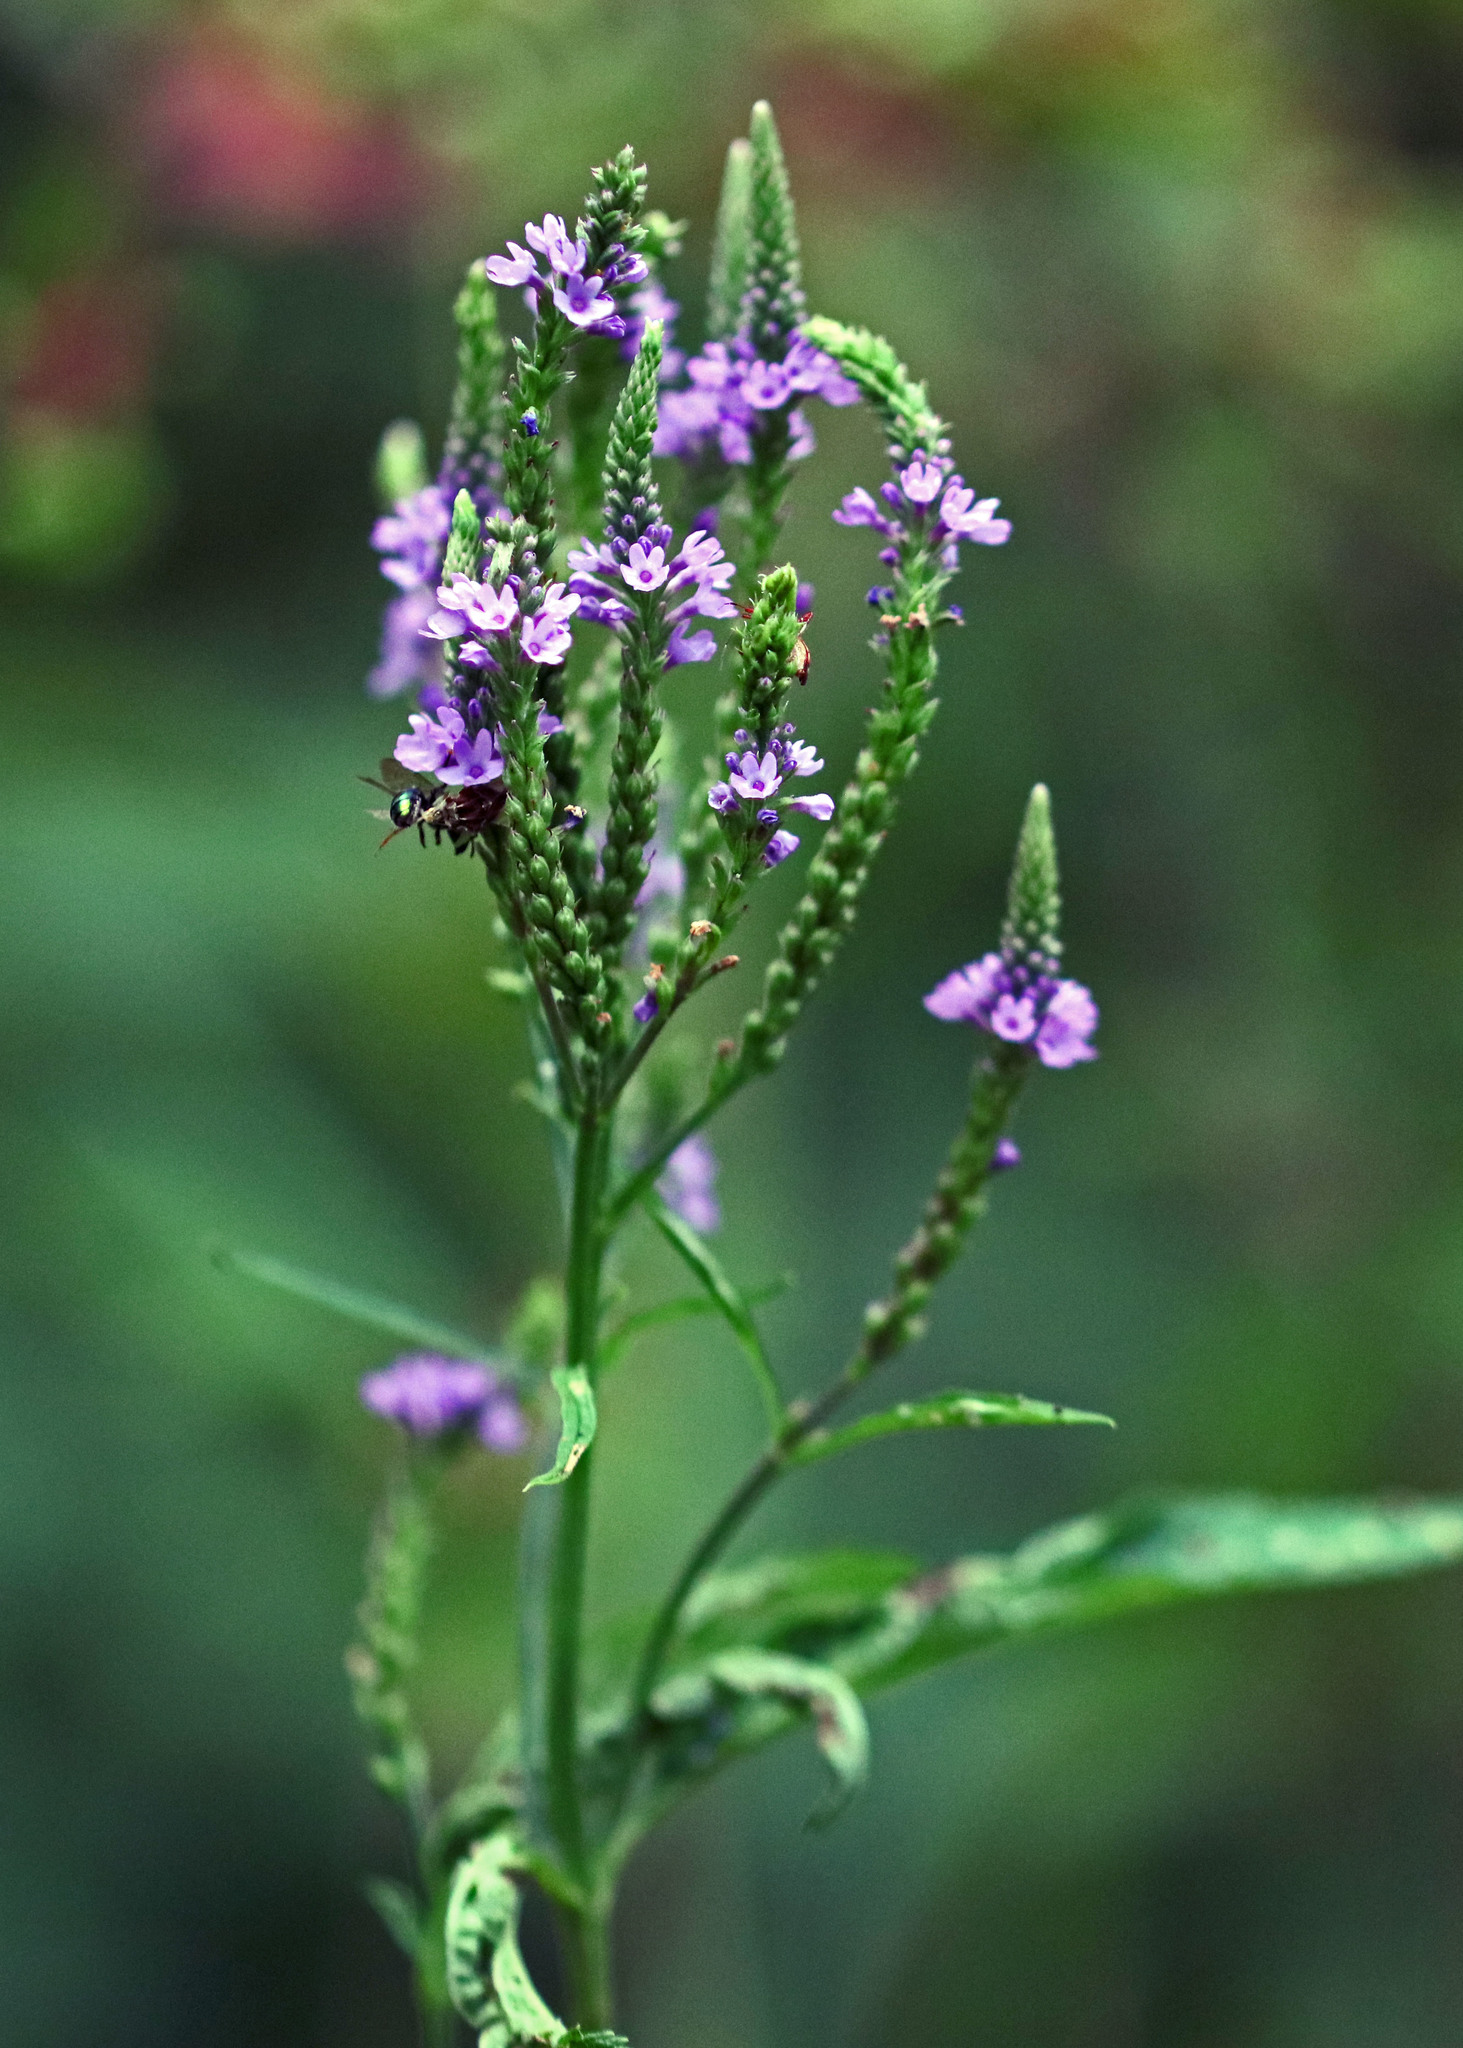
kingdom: Plantae
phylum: Tracheophyta
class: Magnoliopsida
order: Lamiales
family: Verbenaceae
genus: Verbena
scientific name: Verbena hastata
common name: American blue vervain
